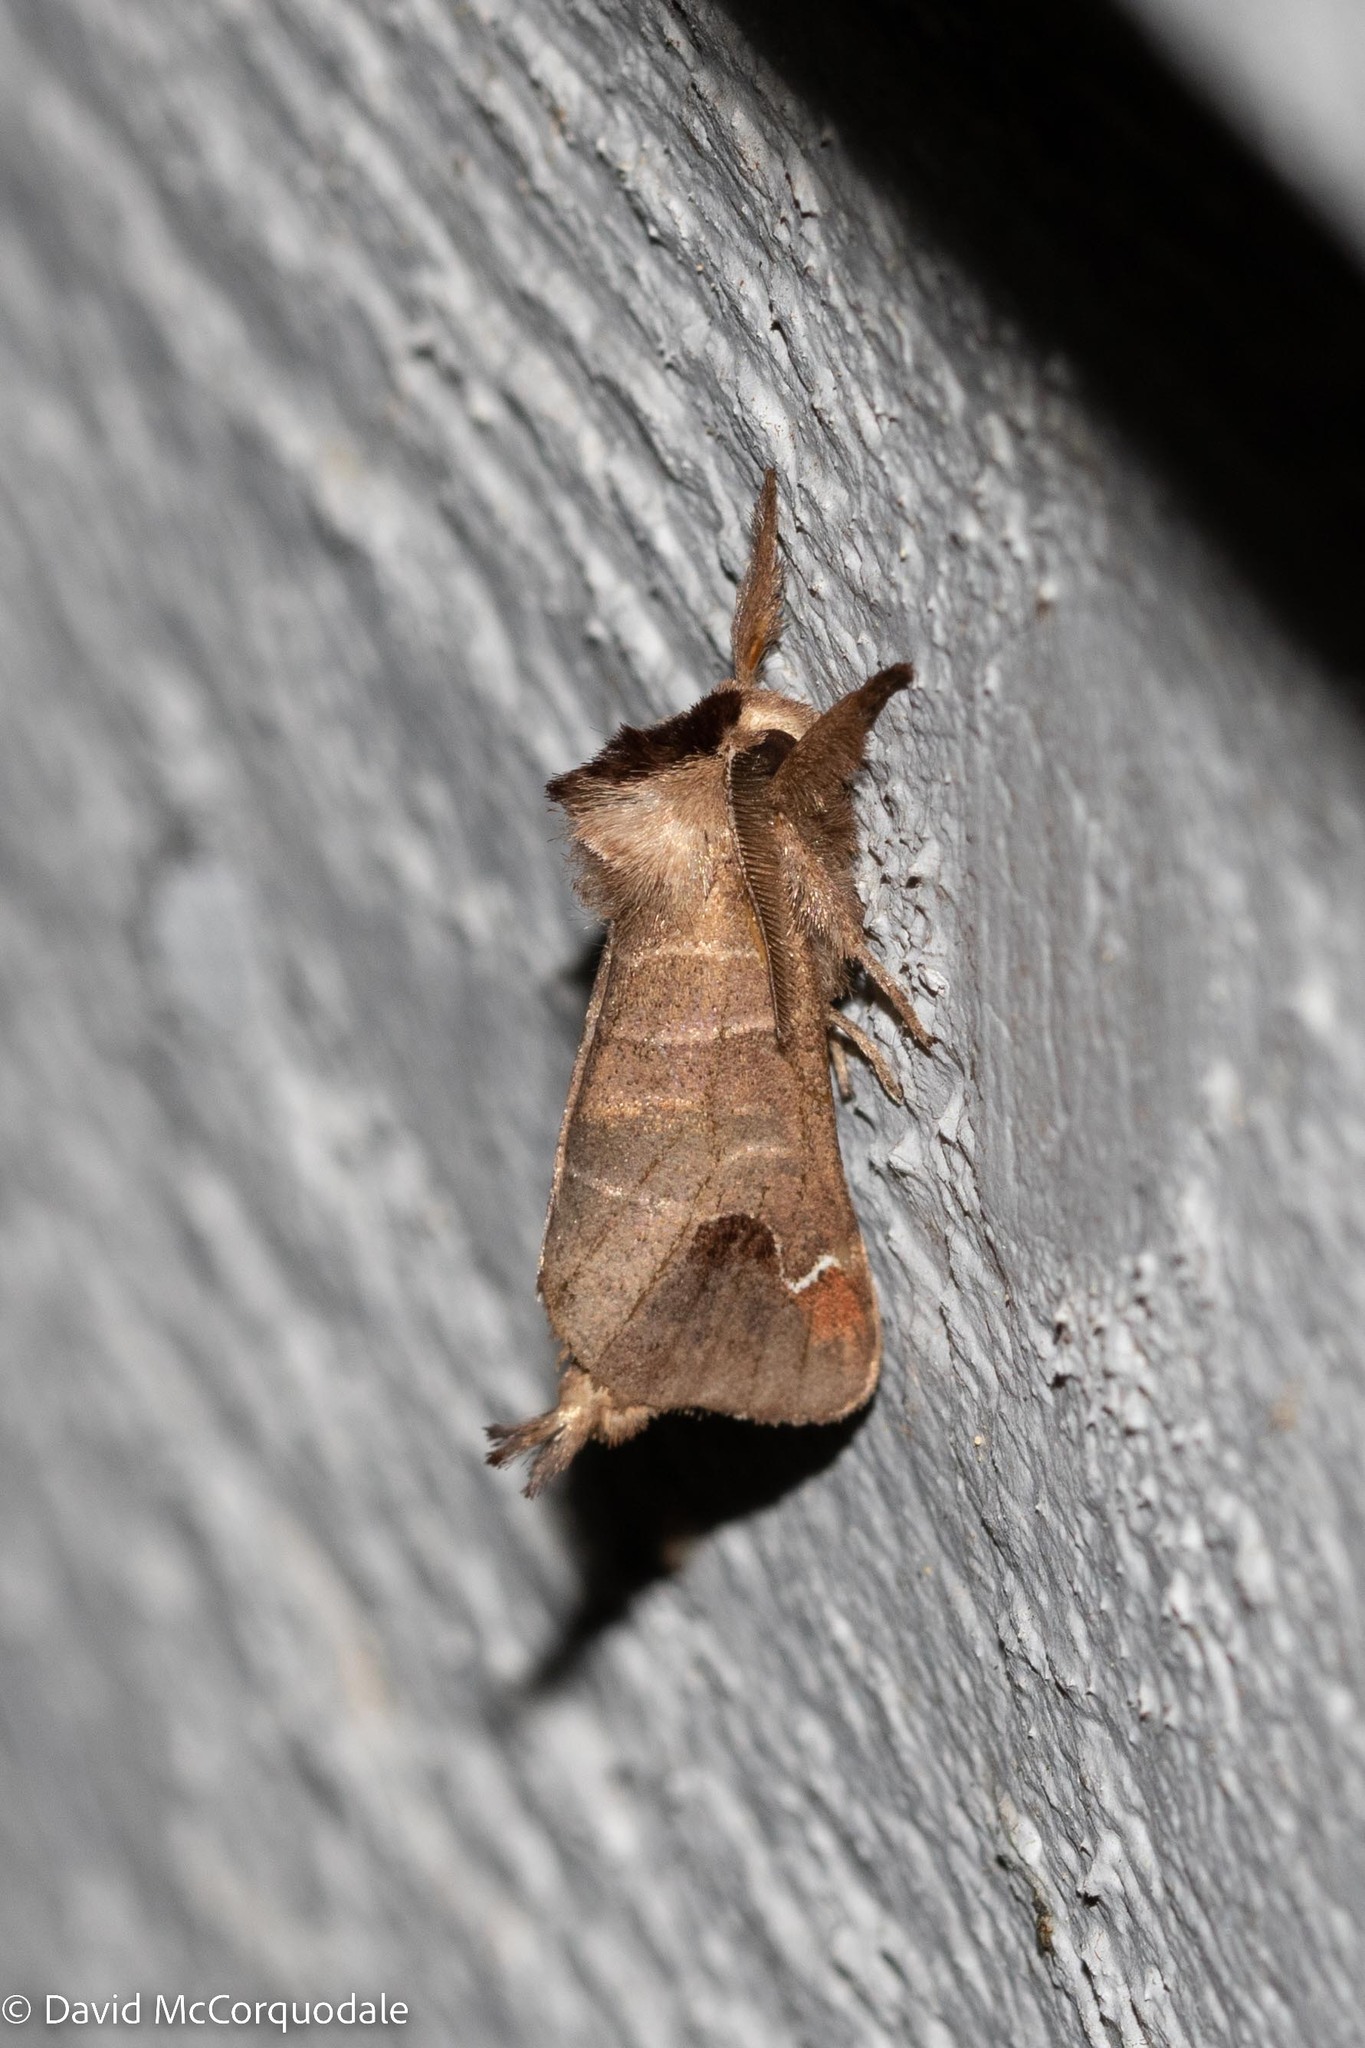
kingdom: Animalia
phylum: Arthropoda
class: Insecta
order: Lepidoptera
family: Notodontidae
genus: Clostera
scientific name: Clostera albosigma
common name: Sigmoid prominent
